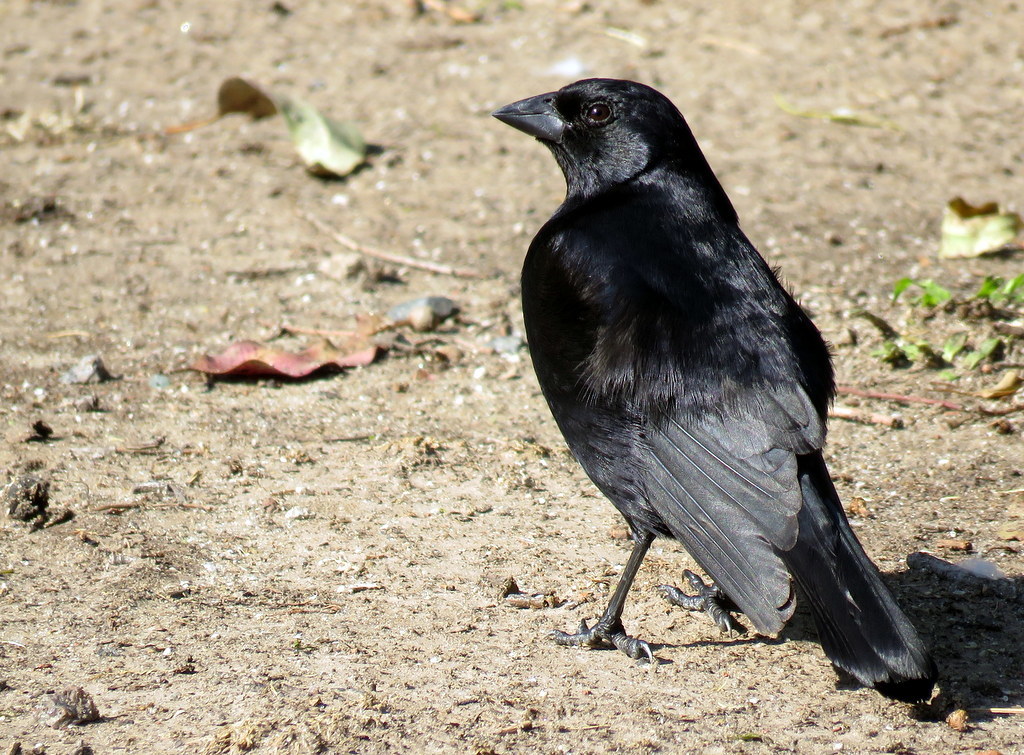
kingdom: Animalia
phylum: Chordata
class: Aves
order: Passeriformes
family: Icteridae
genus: Molothrus
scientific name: Molothrus rufoaxillaris
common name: Screaming cowbird
